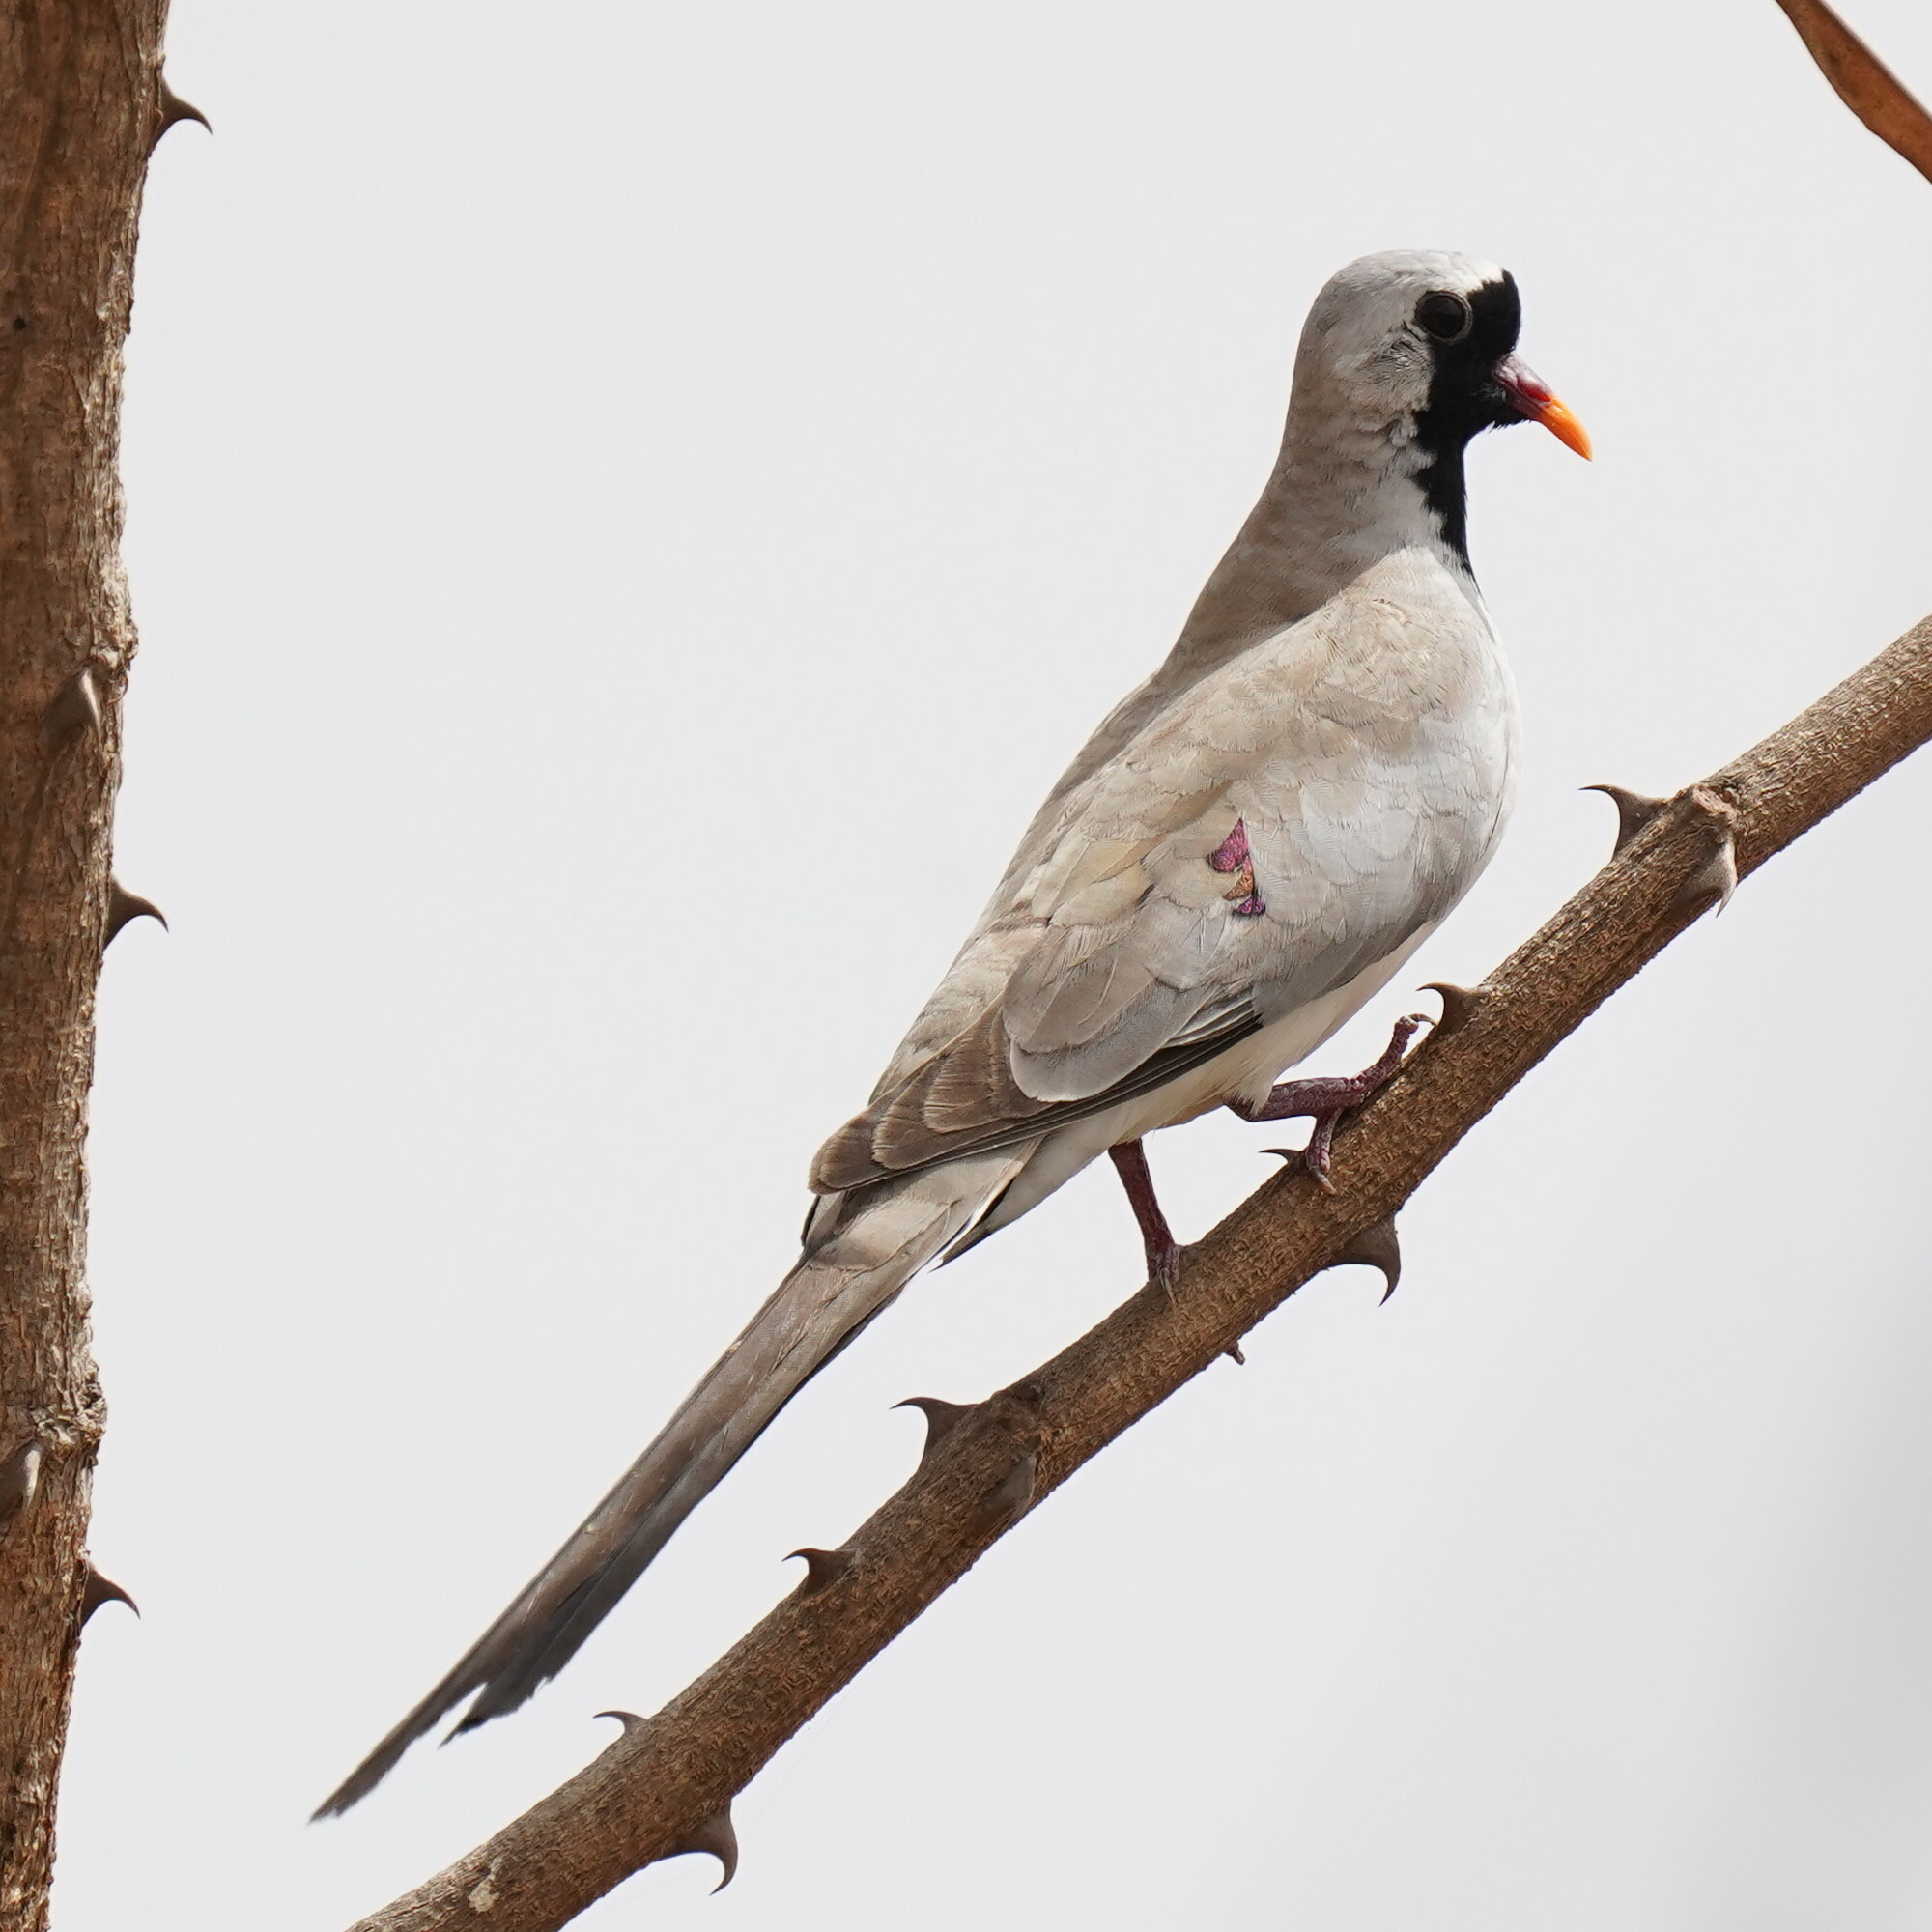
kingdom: Animalia
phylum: Chordata
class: Aves
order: Columbiformes
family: Columbidae
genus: Oena
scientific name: Oena capensis
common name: Namaqua dove
